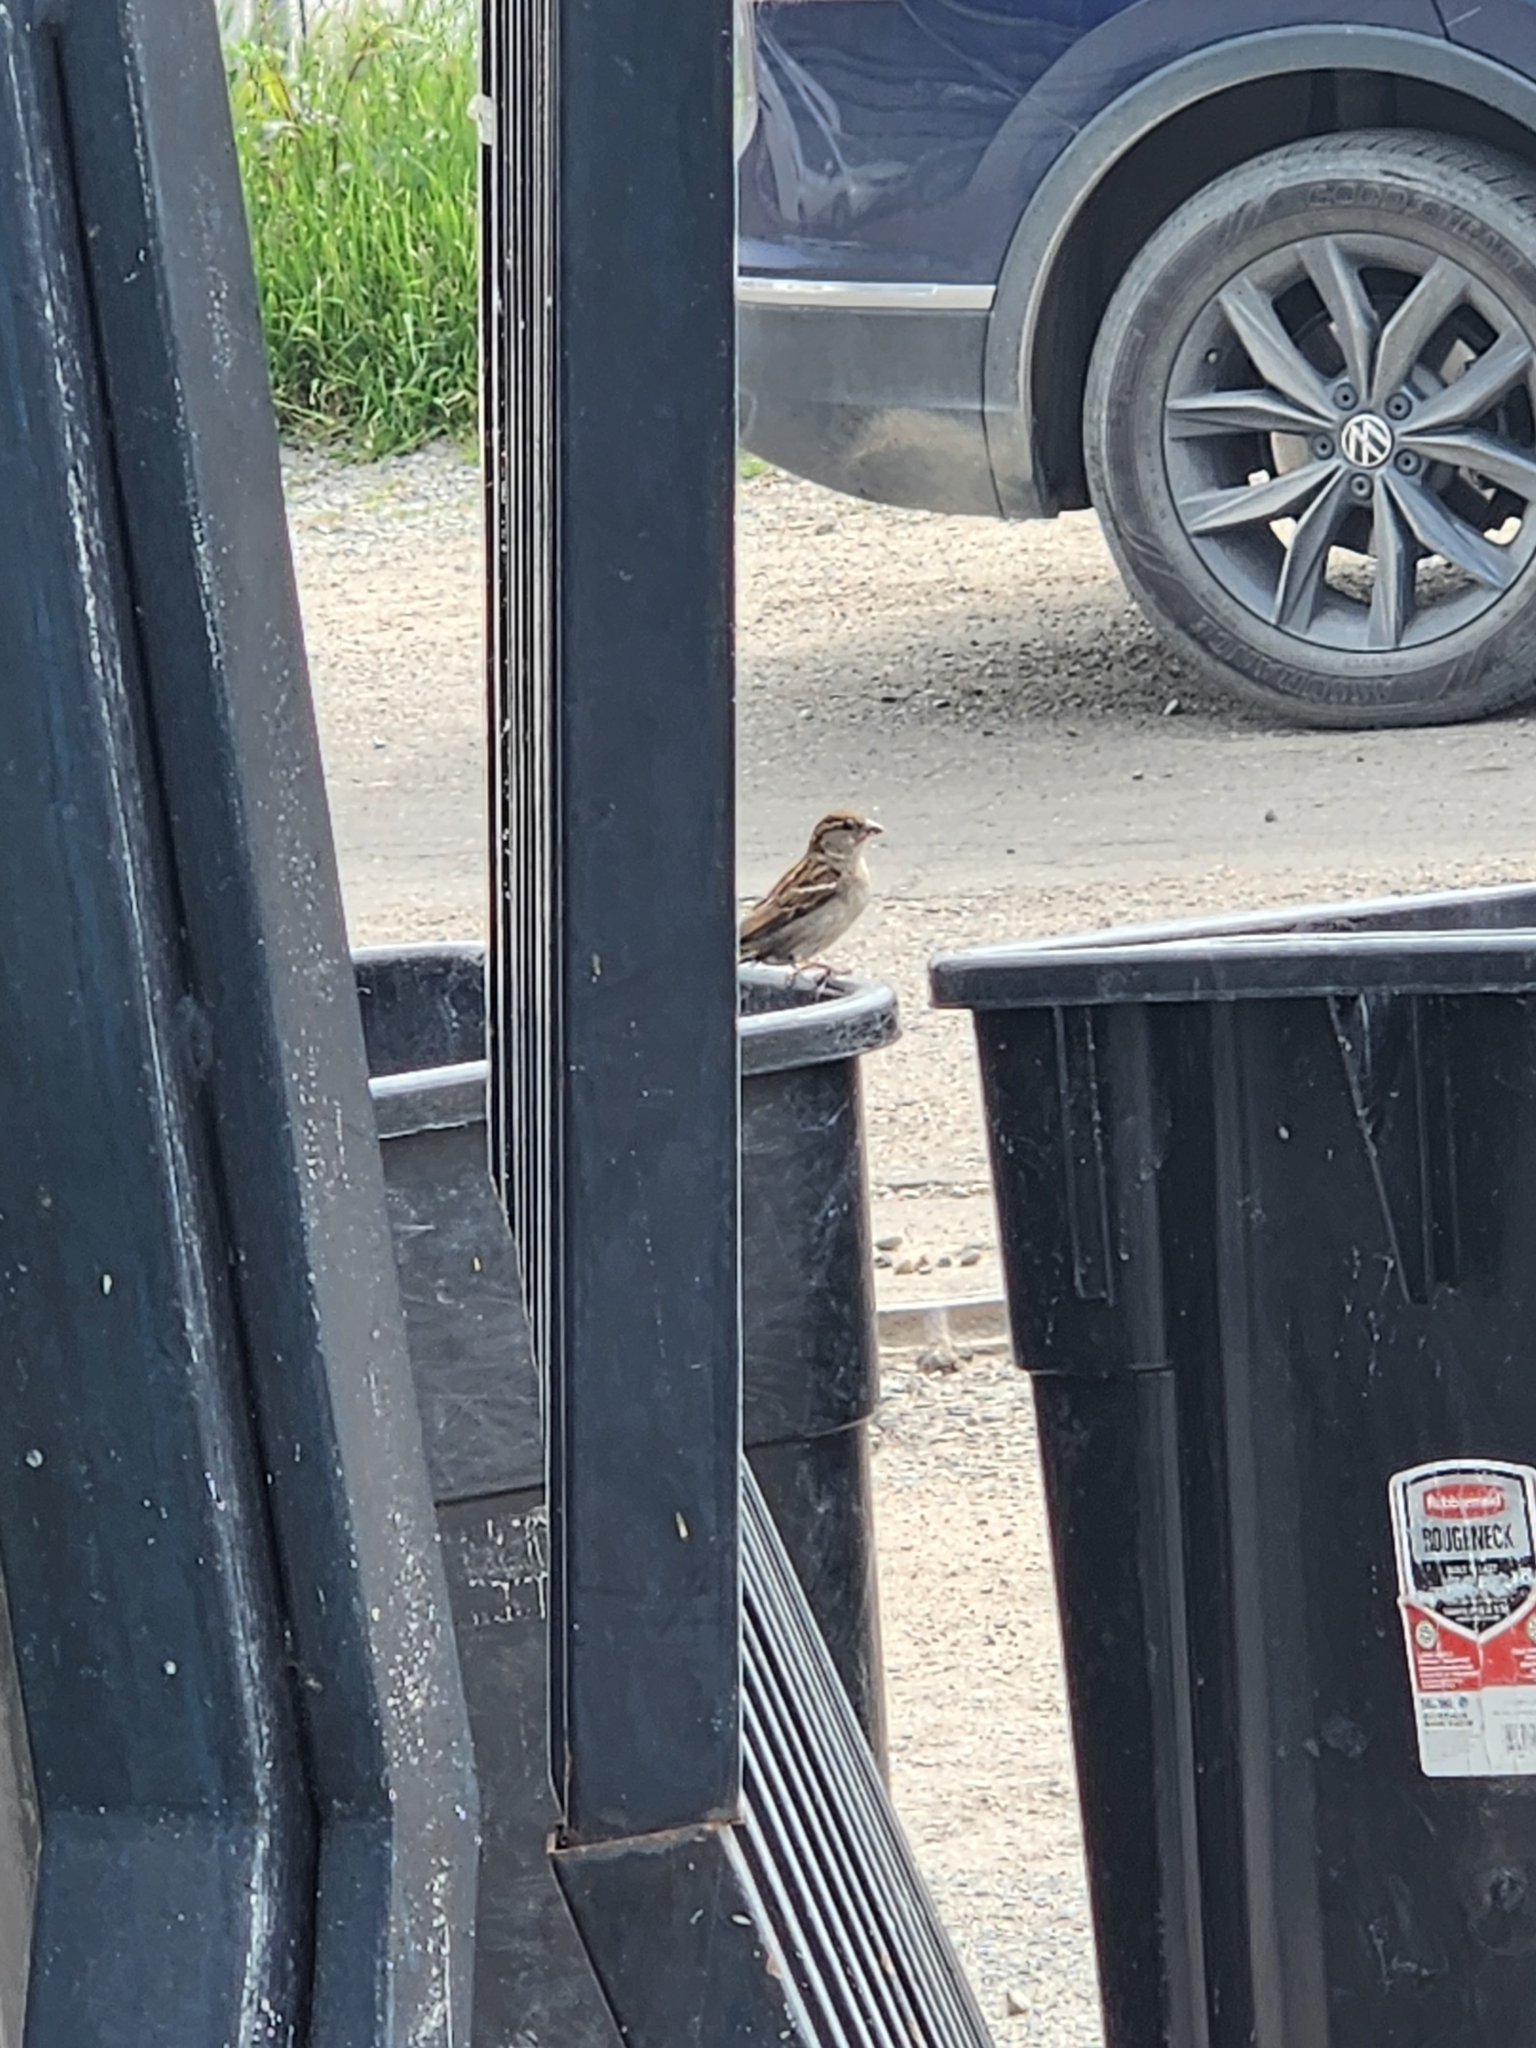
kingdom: Animalia
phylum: Chordata
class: Aves
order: Passeriformes
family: Passeridae
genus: Passer
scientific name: Passer domesticus
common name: House sparrow
